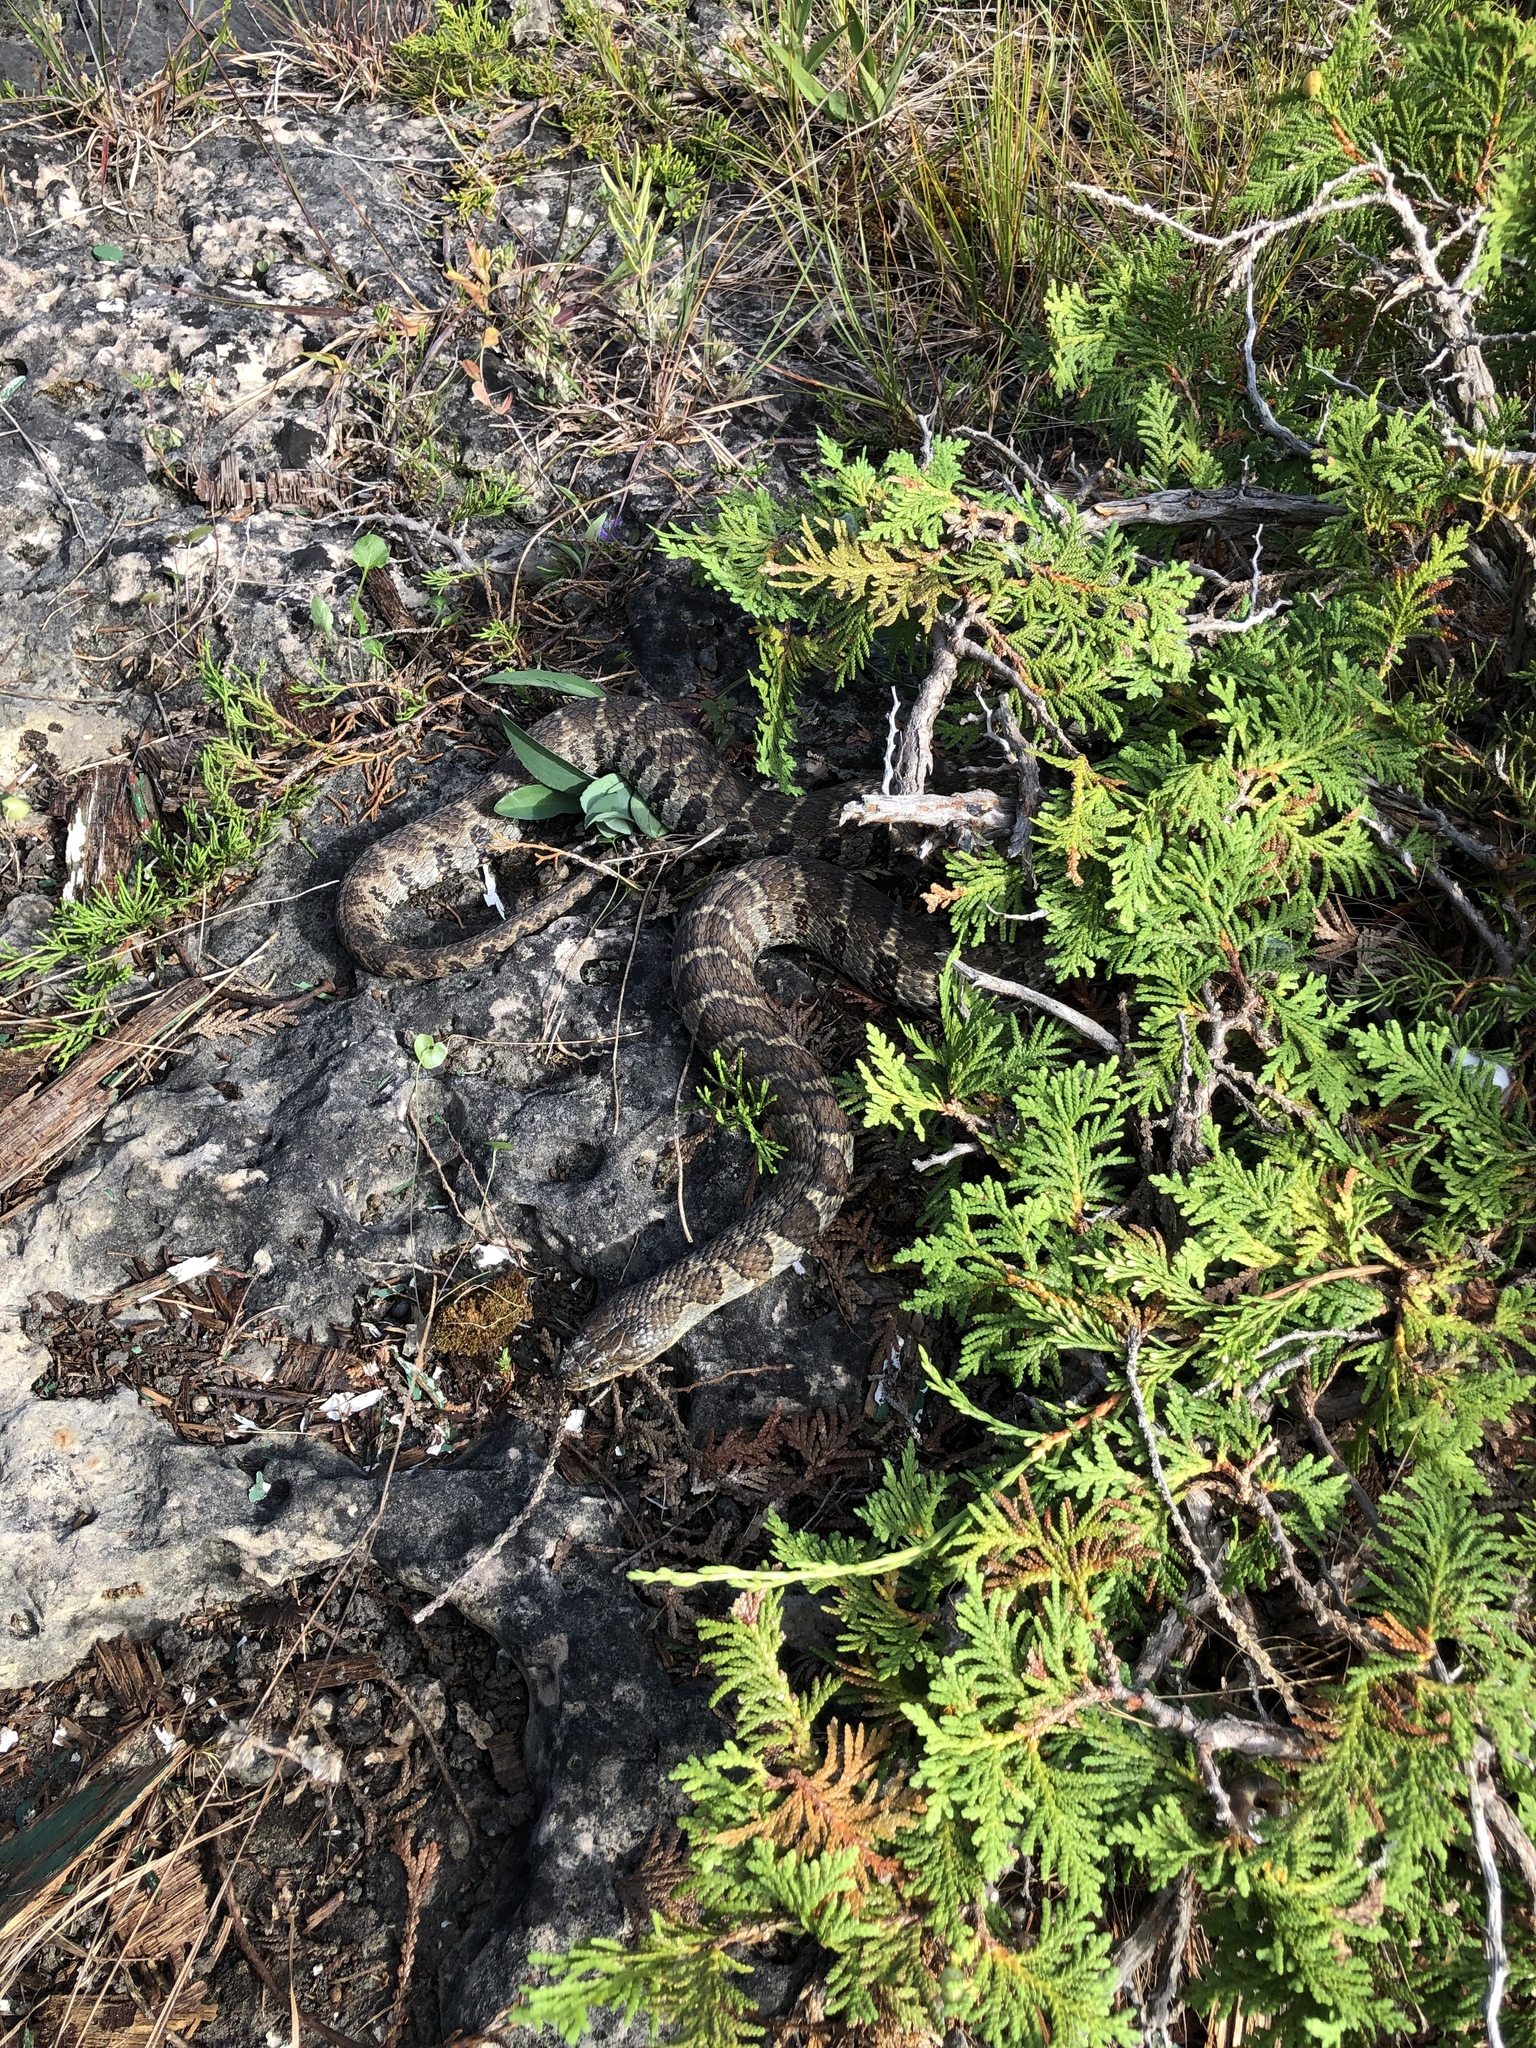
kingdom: Animalia
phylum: Chordata
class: Squamata
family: Colubridae
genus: Nerodia
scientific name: Nerodia sipedon
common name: Northern water snake
